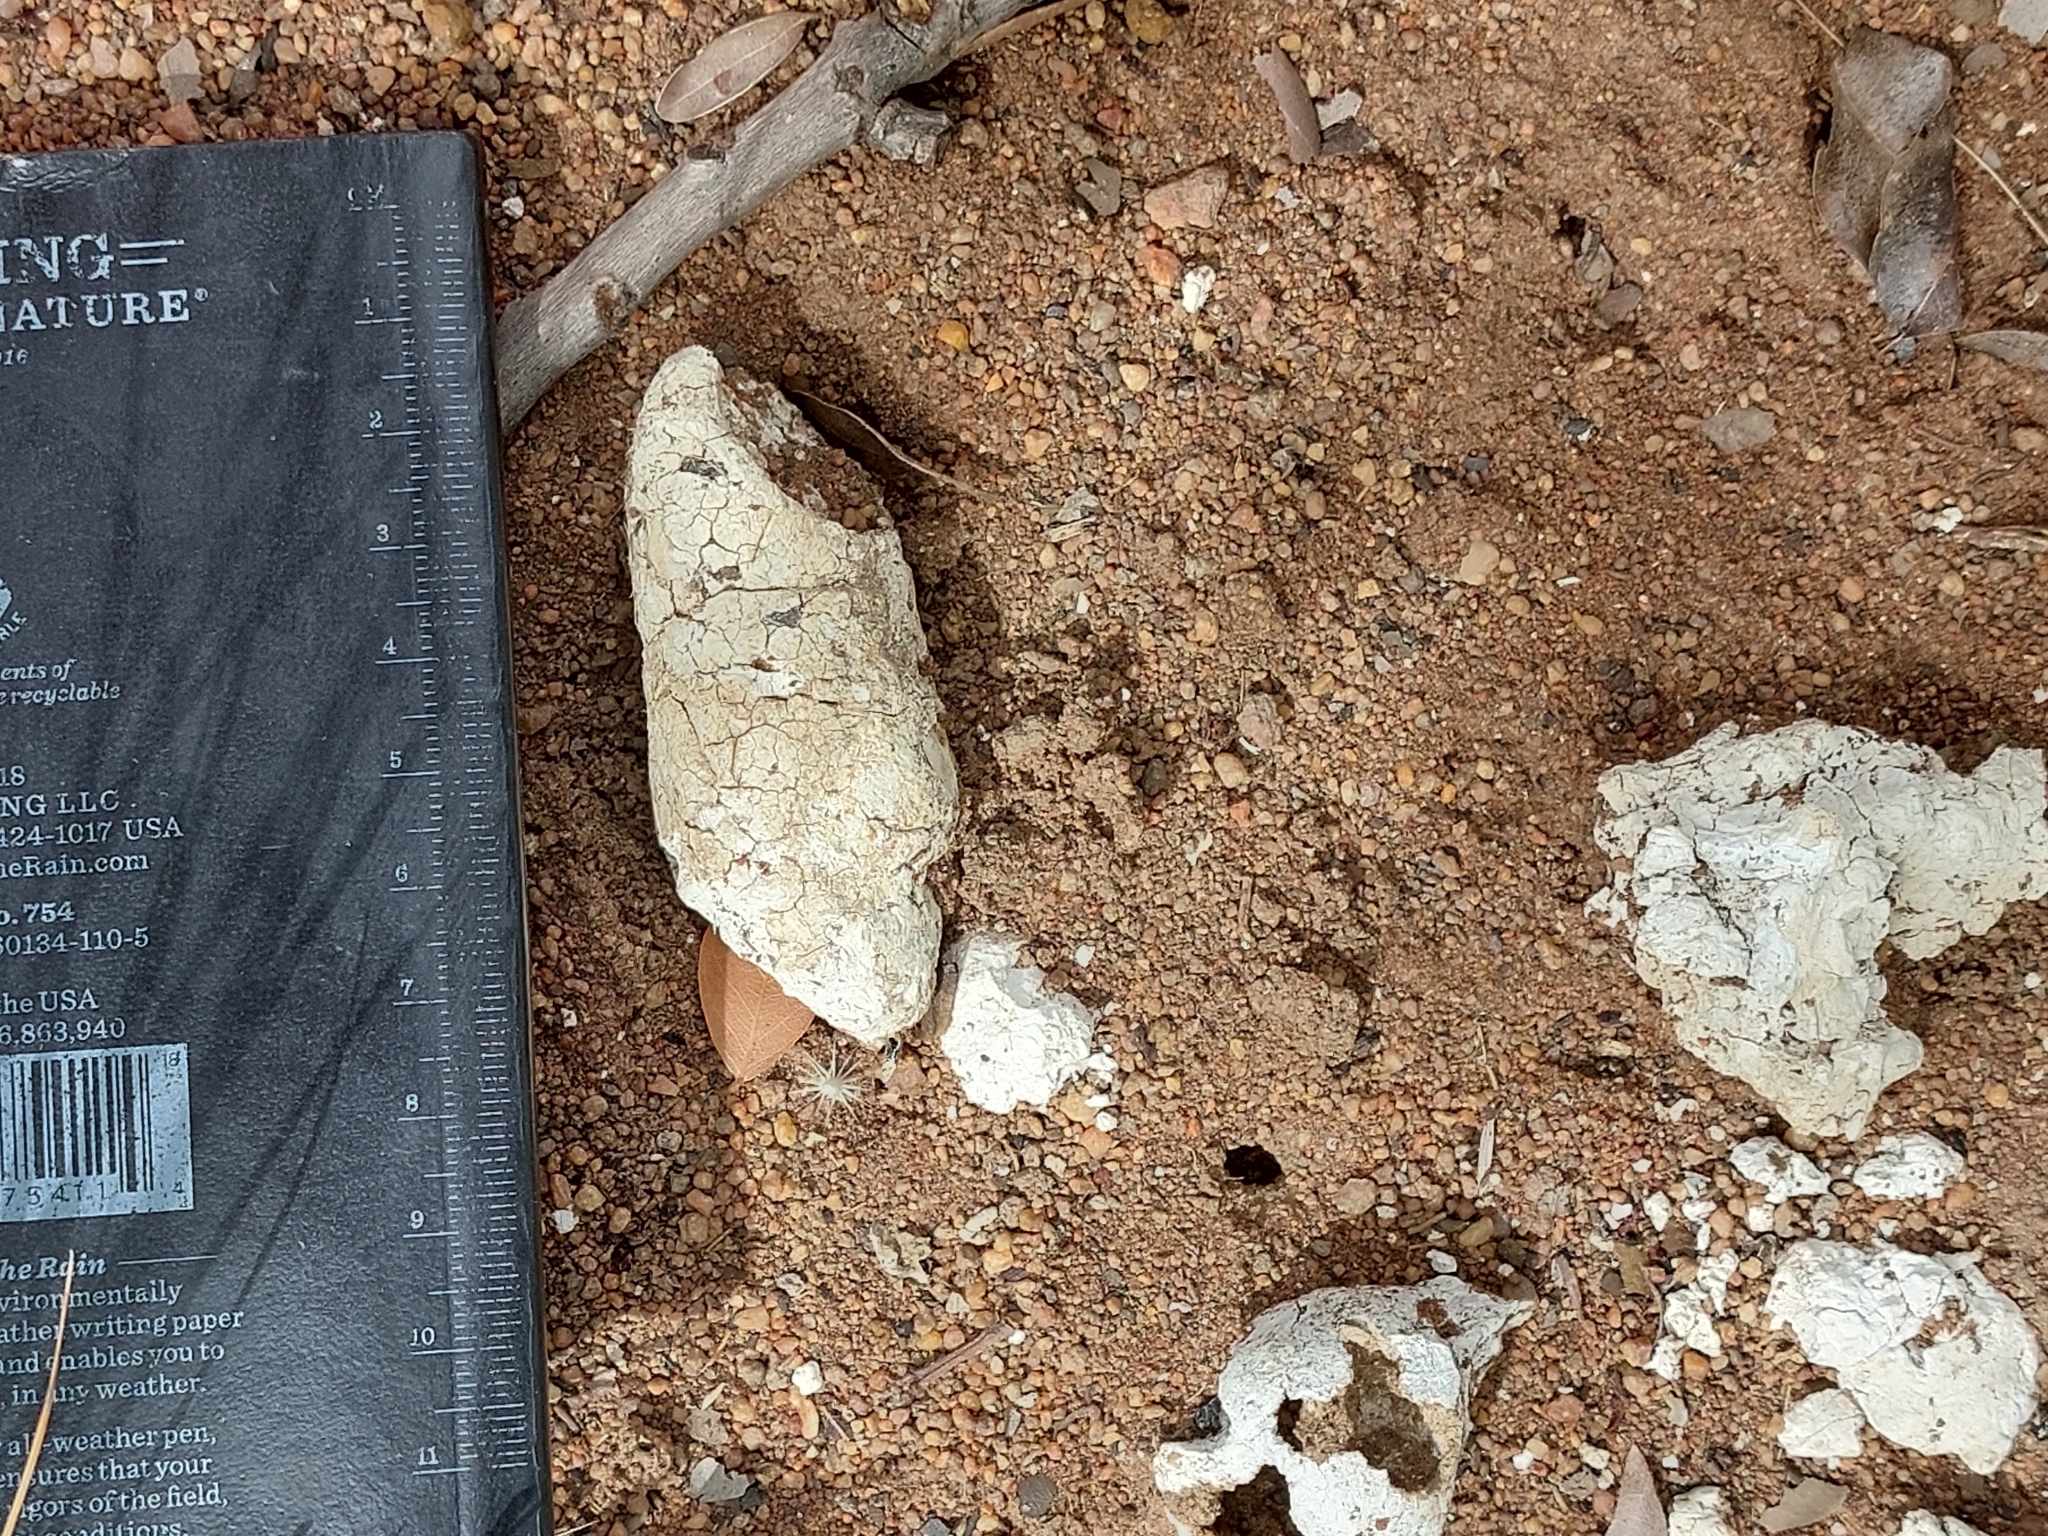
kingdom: Animalia
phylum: Chordata
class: Mammalia
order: Carnivora
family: Hyaenidae
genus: Hyaena
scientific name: Hyaena brunnea
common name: Brown hyena
